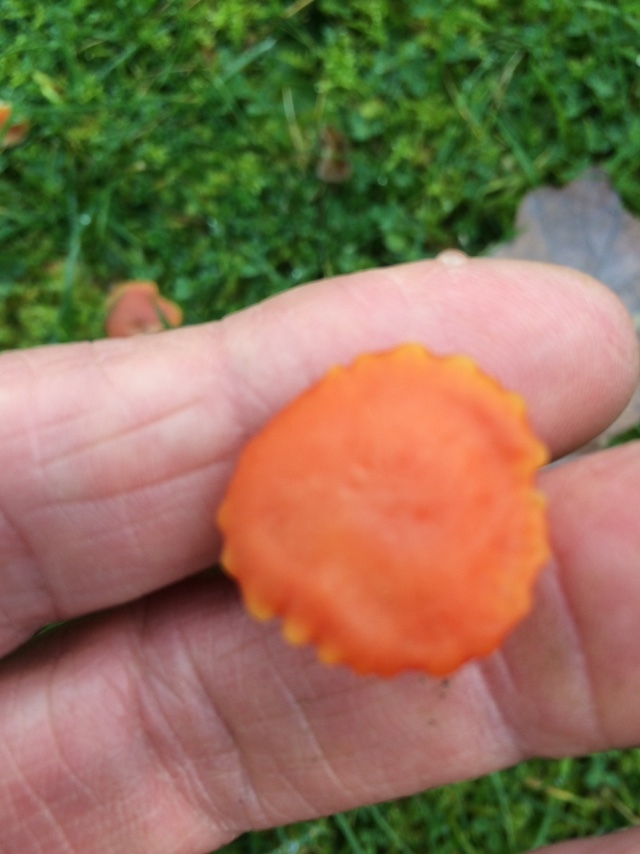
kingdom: Fungi
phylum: Basidiomycota
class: Agaricomycetes
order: Agaricales
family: Hygrophoraceae
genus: Hygrocybe
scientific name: Hygrocybe reidii
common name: Honey waxcap
